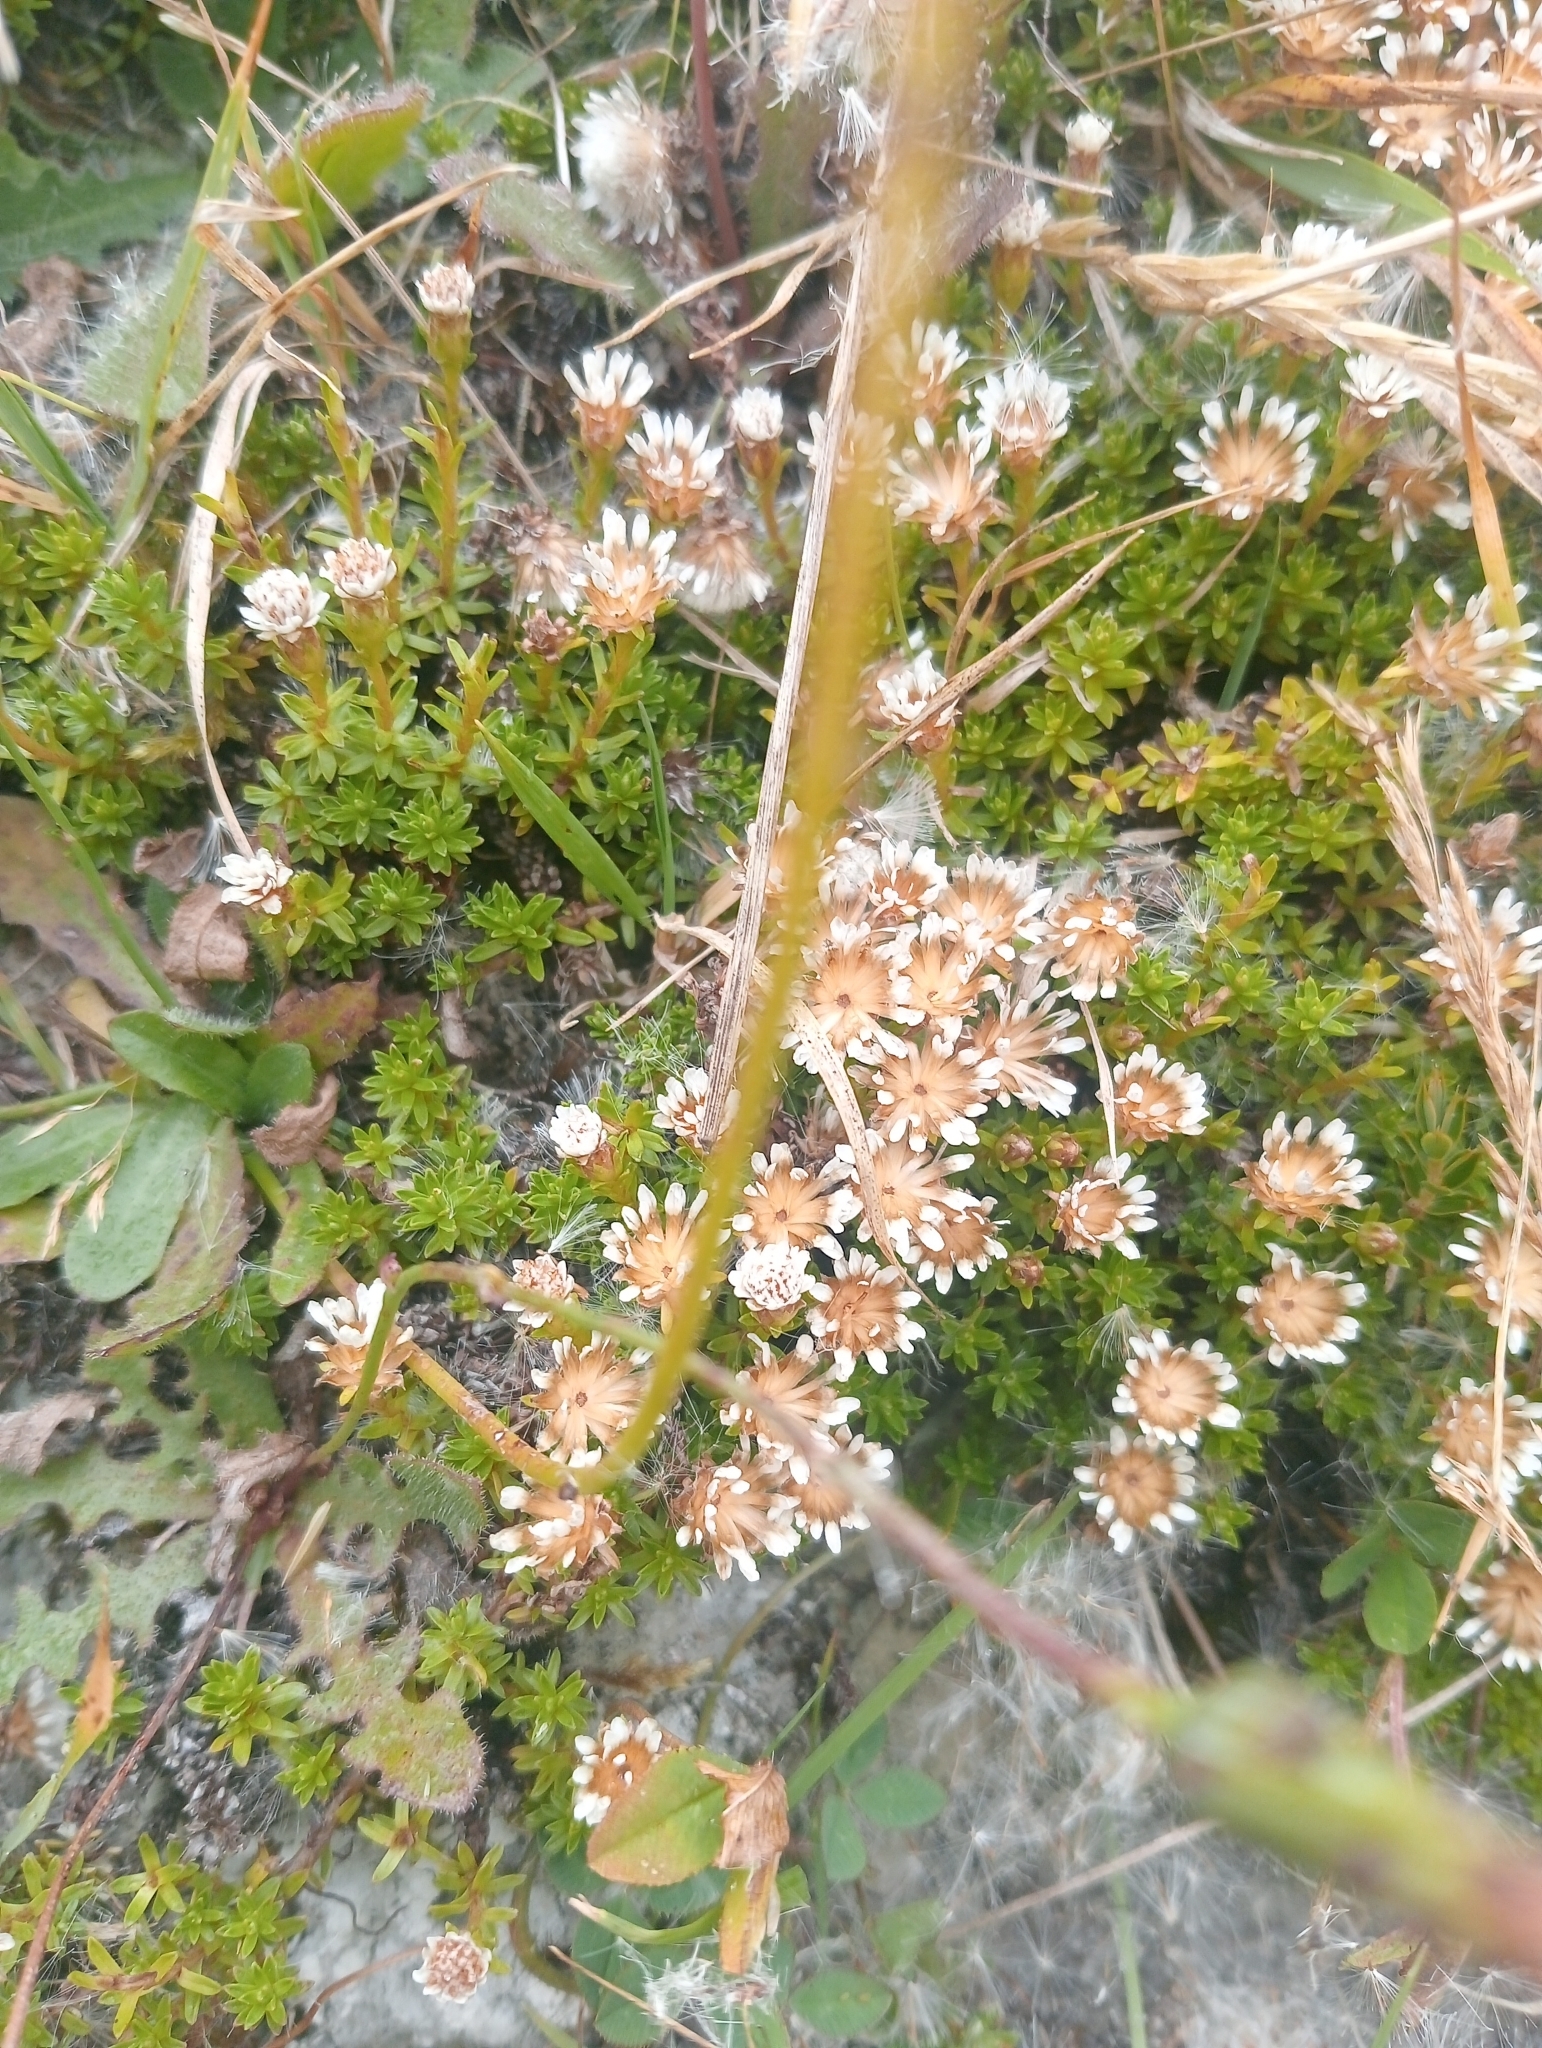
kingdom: Plantae
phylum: Tracheophyta
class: Magnoliopsida
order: Asterales
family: Asteraceae
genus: Raoulia
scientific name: Raoulia subsericea
